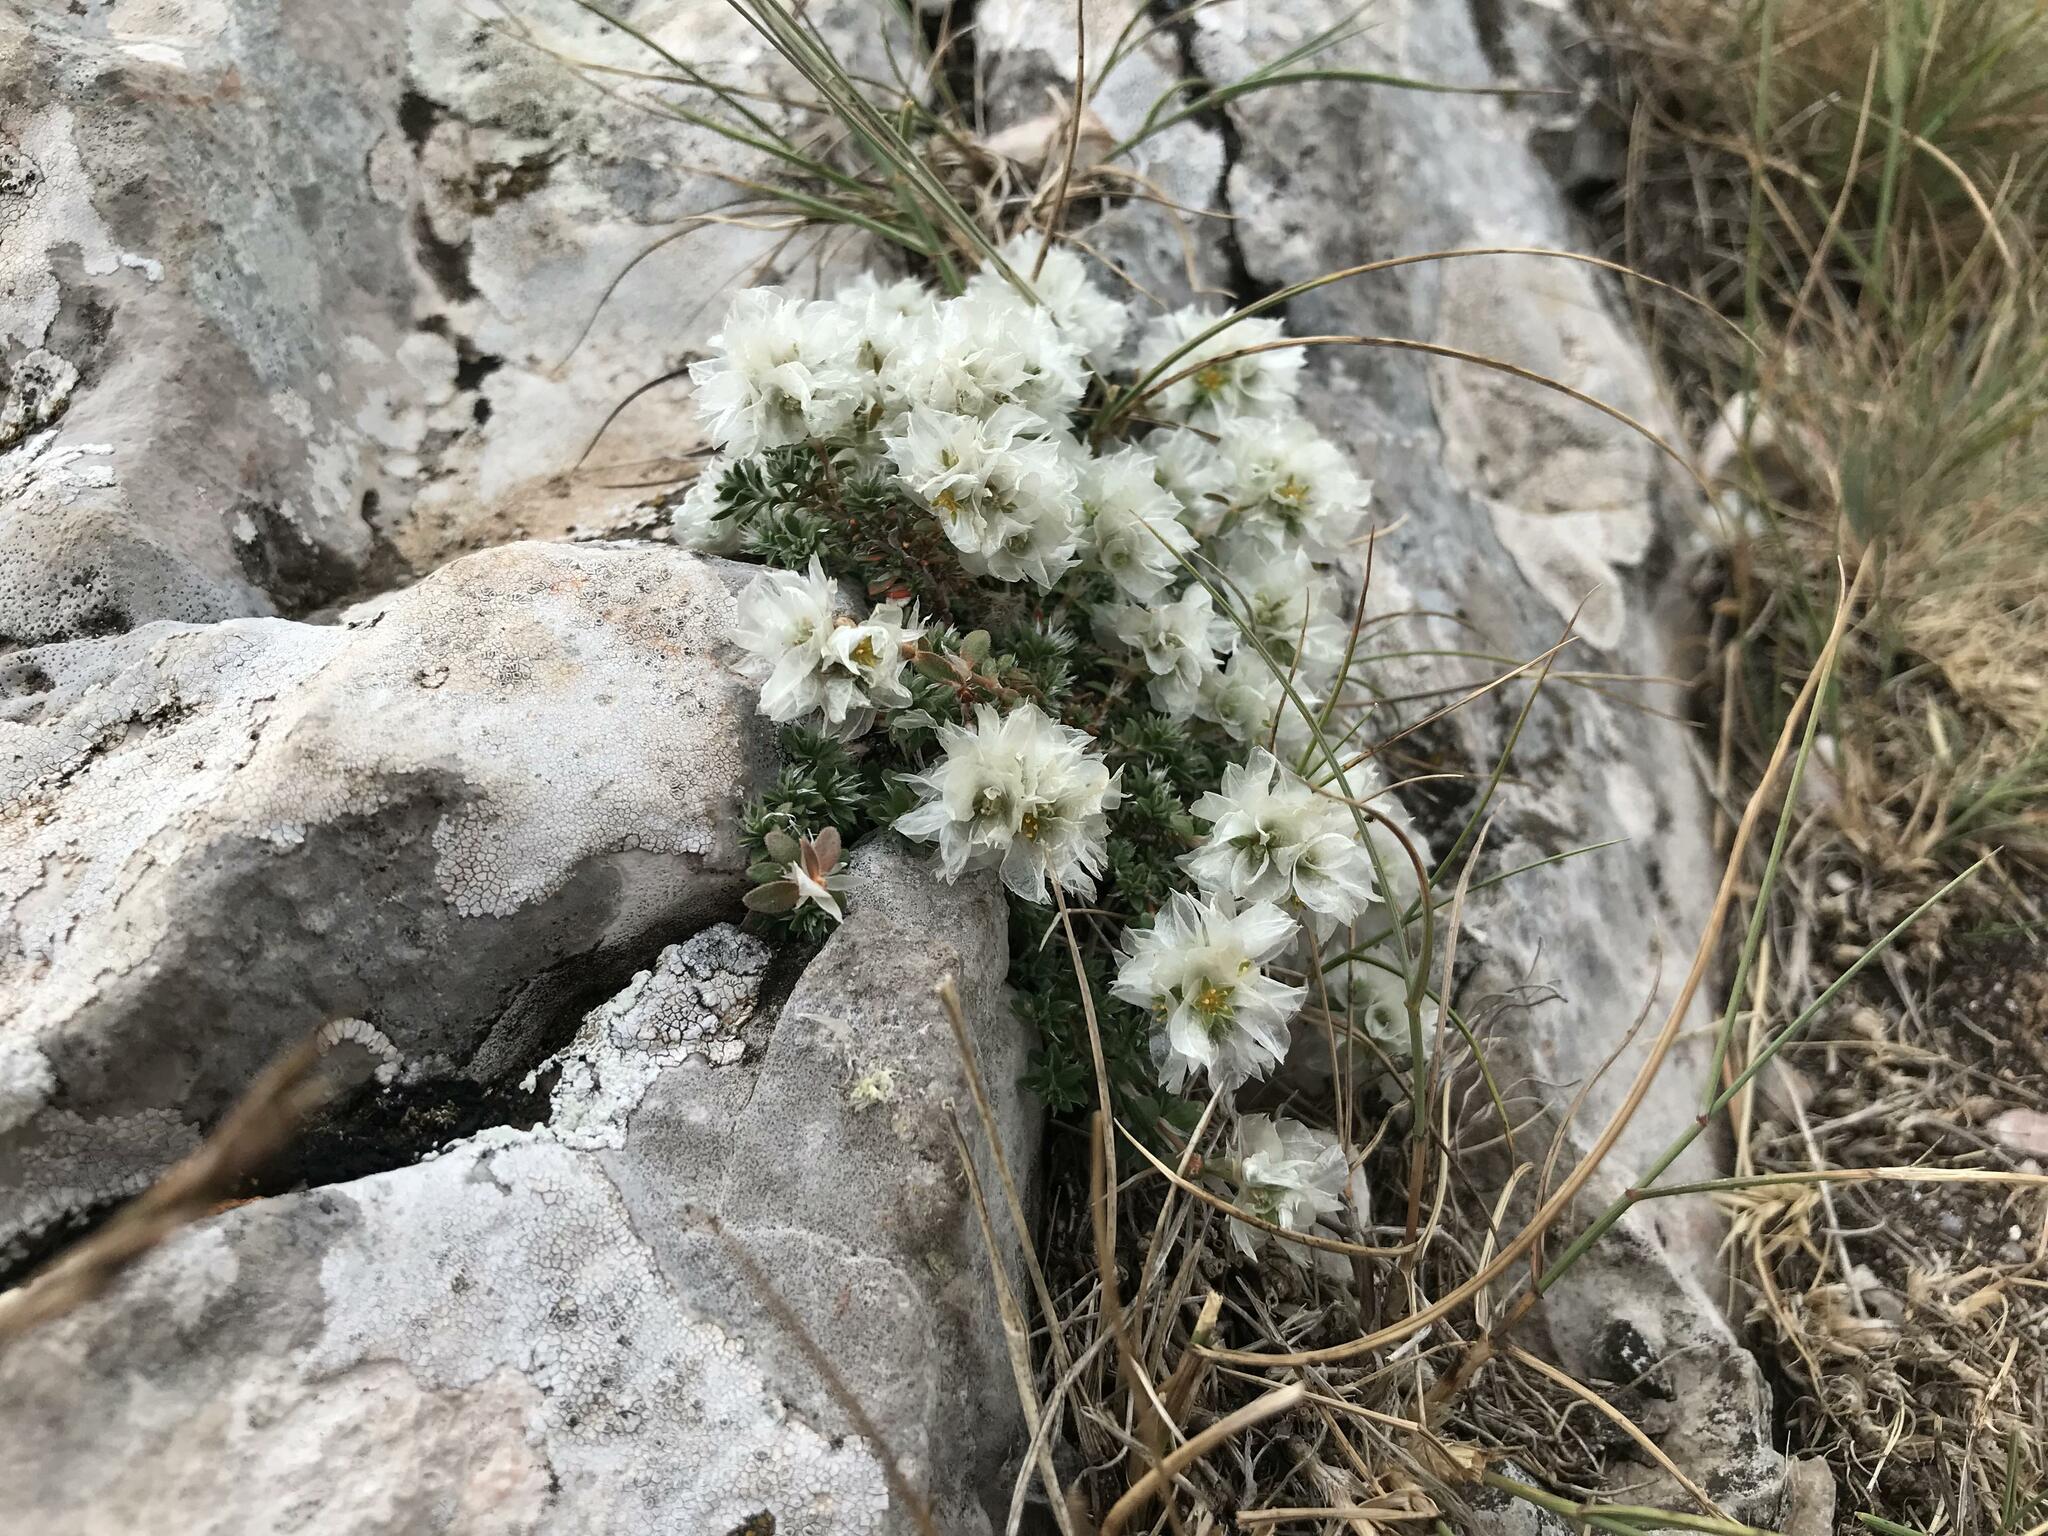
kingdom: Plantae
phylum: Tracheophyta
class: Magnoliopsida
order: Caryophyllales
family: Caryophyllaceae
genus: Paronychia
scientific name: Paronychia cephalotes
